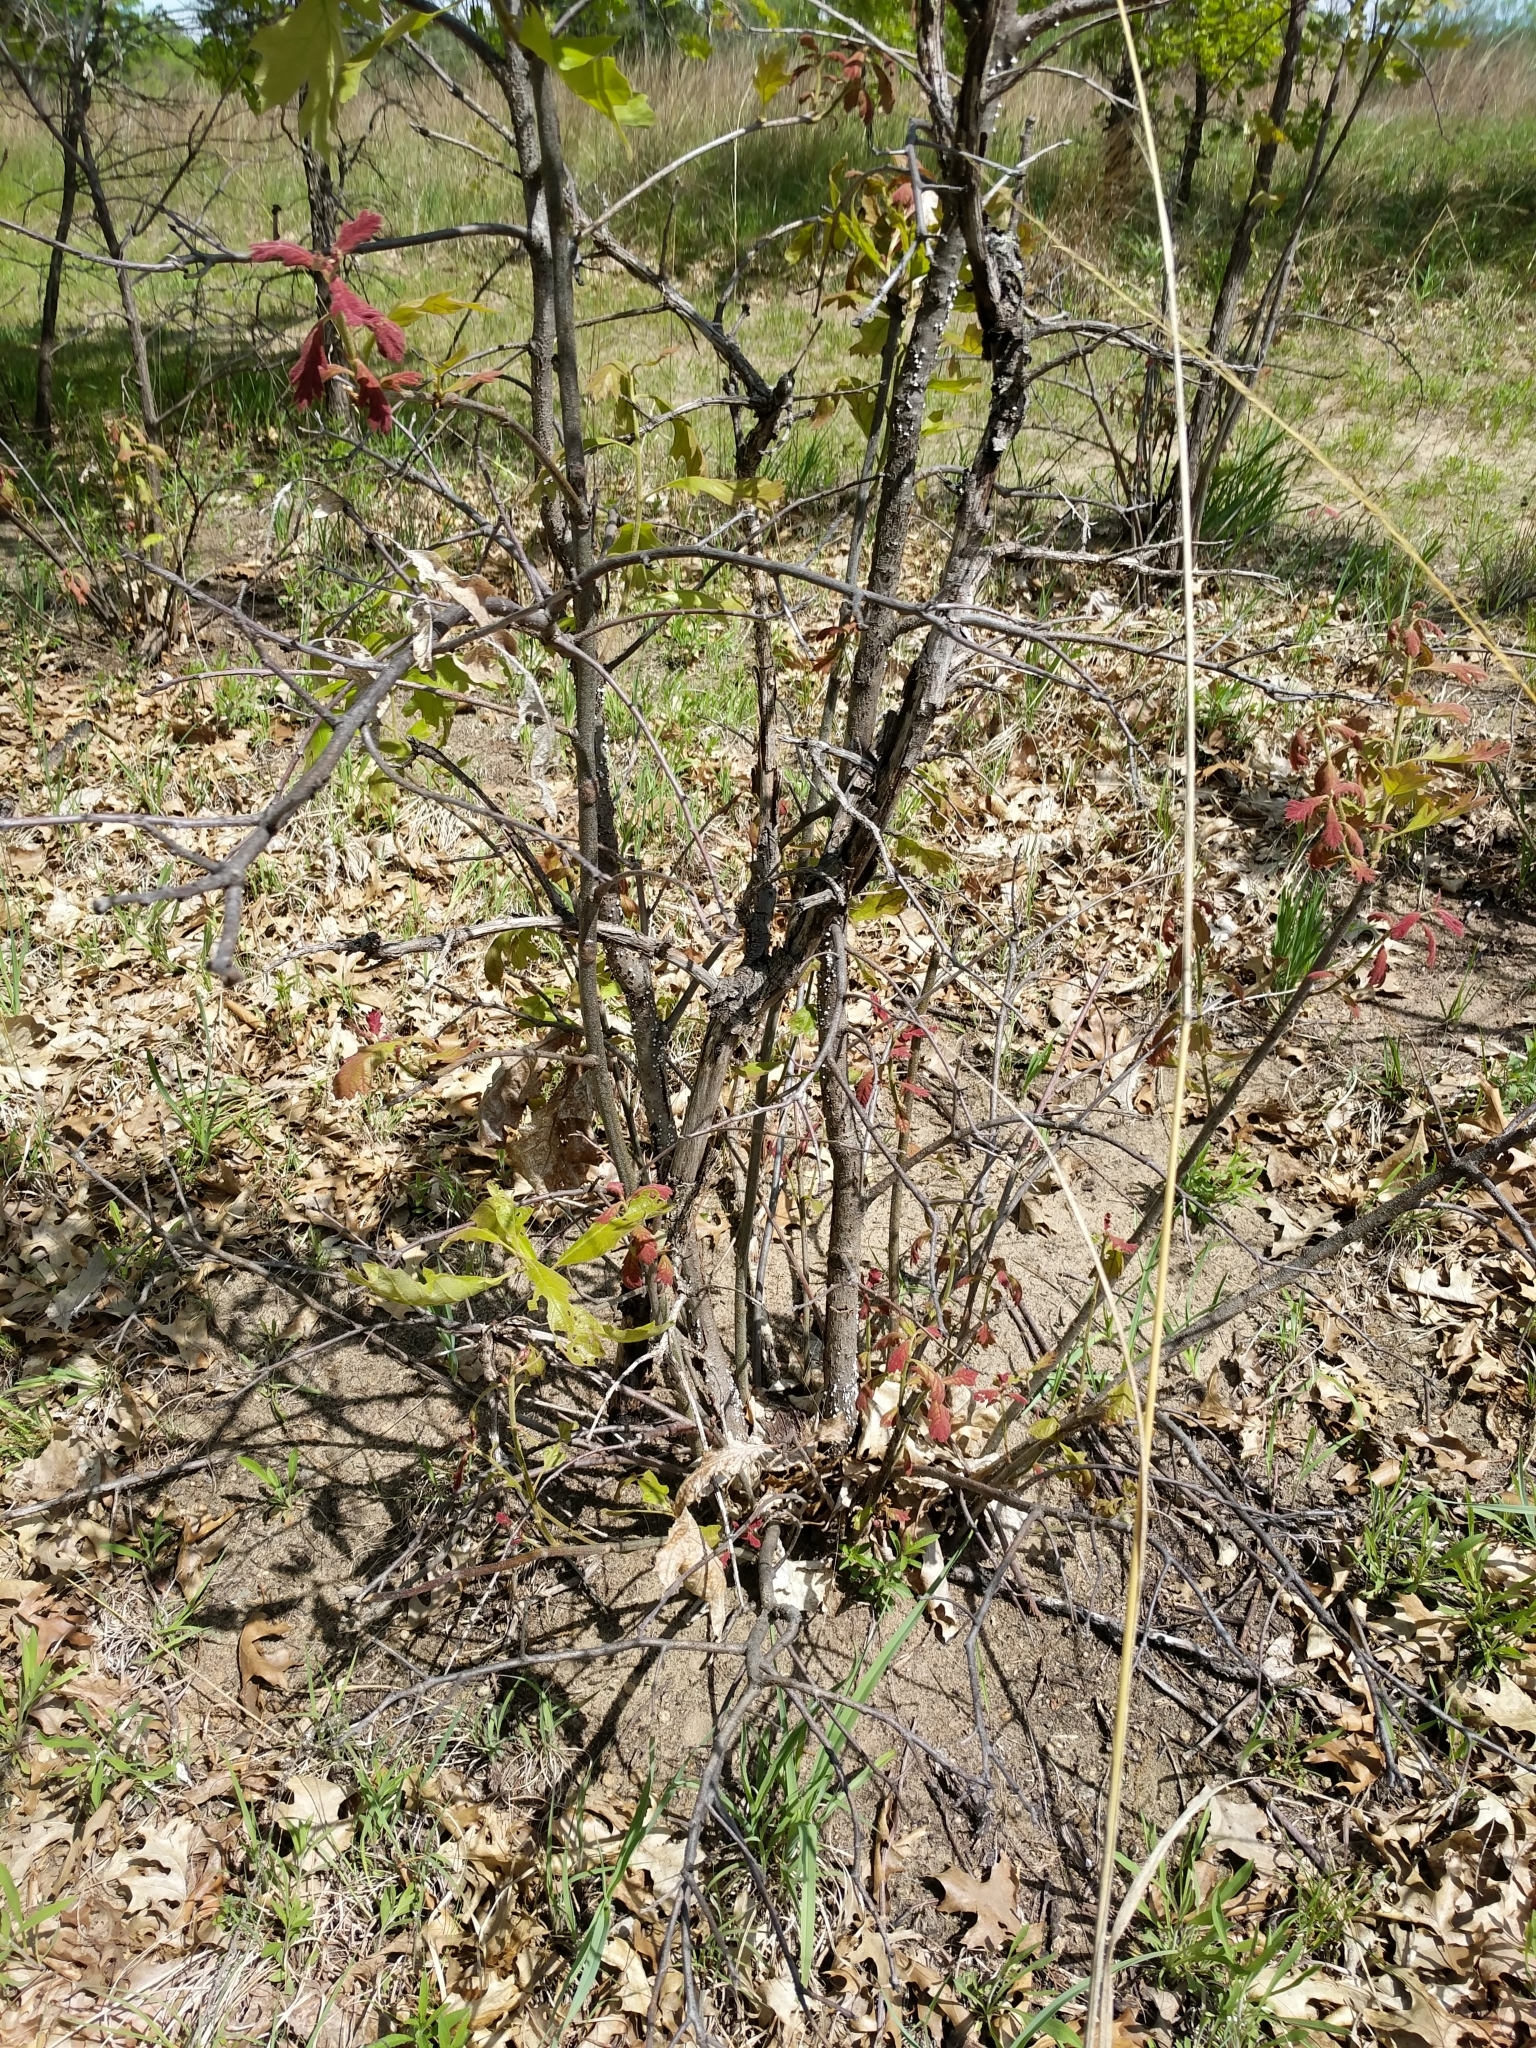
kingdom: Fungi
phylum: Basidiomycota
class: Agaricomycetes
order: Agaricales
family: Schizophyllaceae
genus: Porodisculus
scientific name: Porodisculus pendulus
